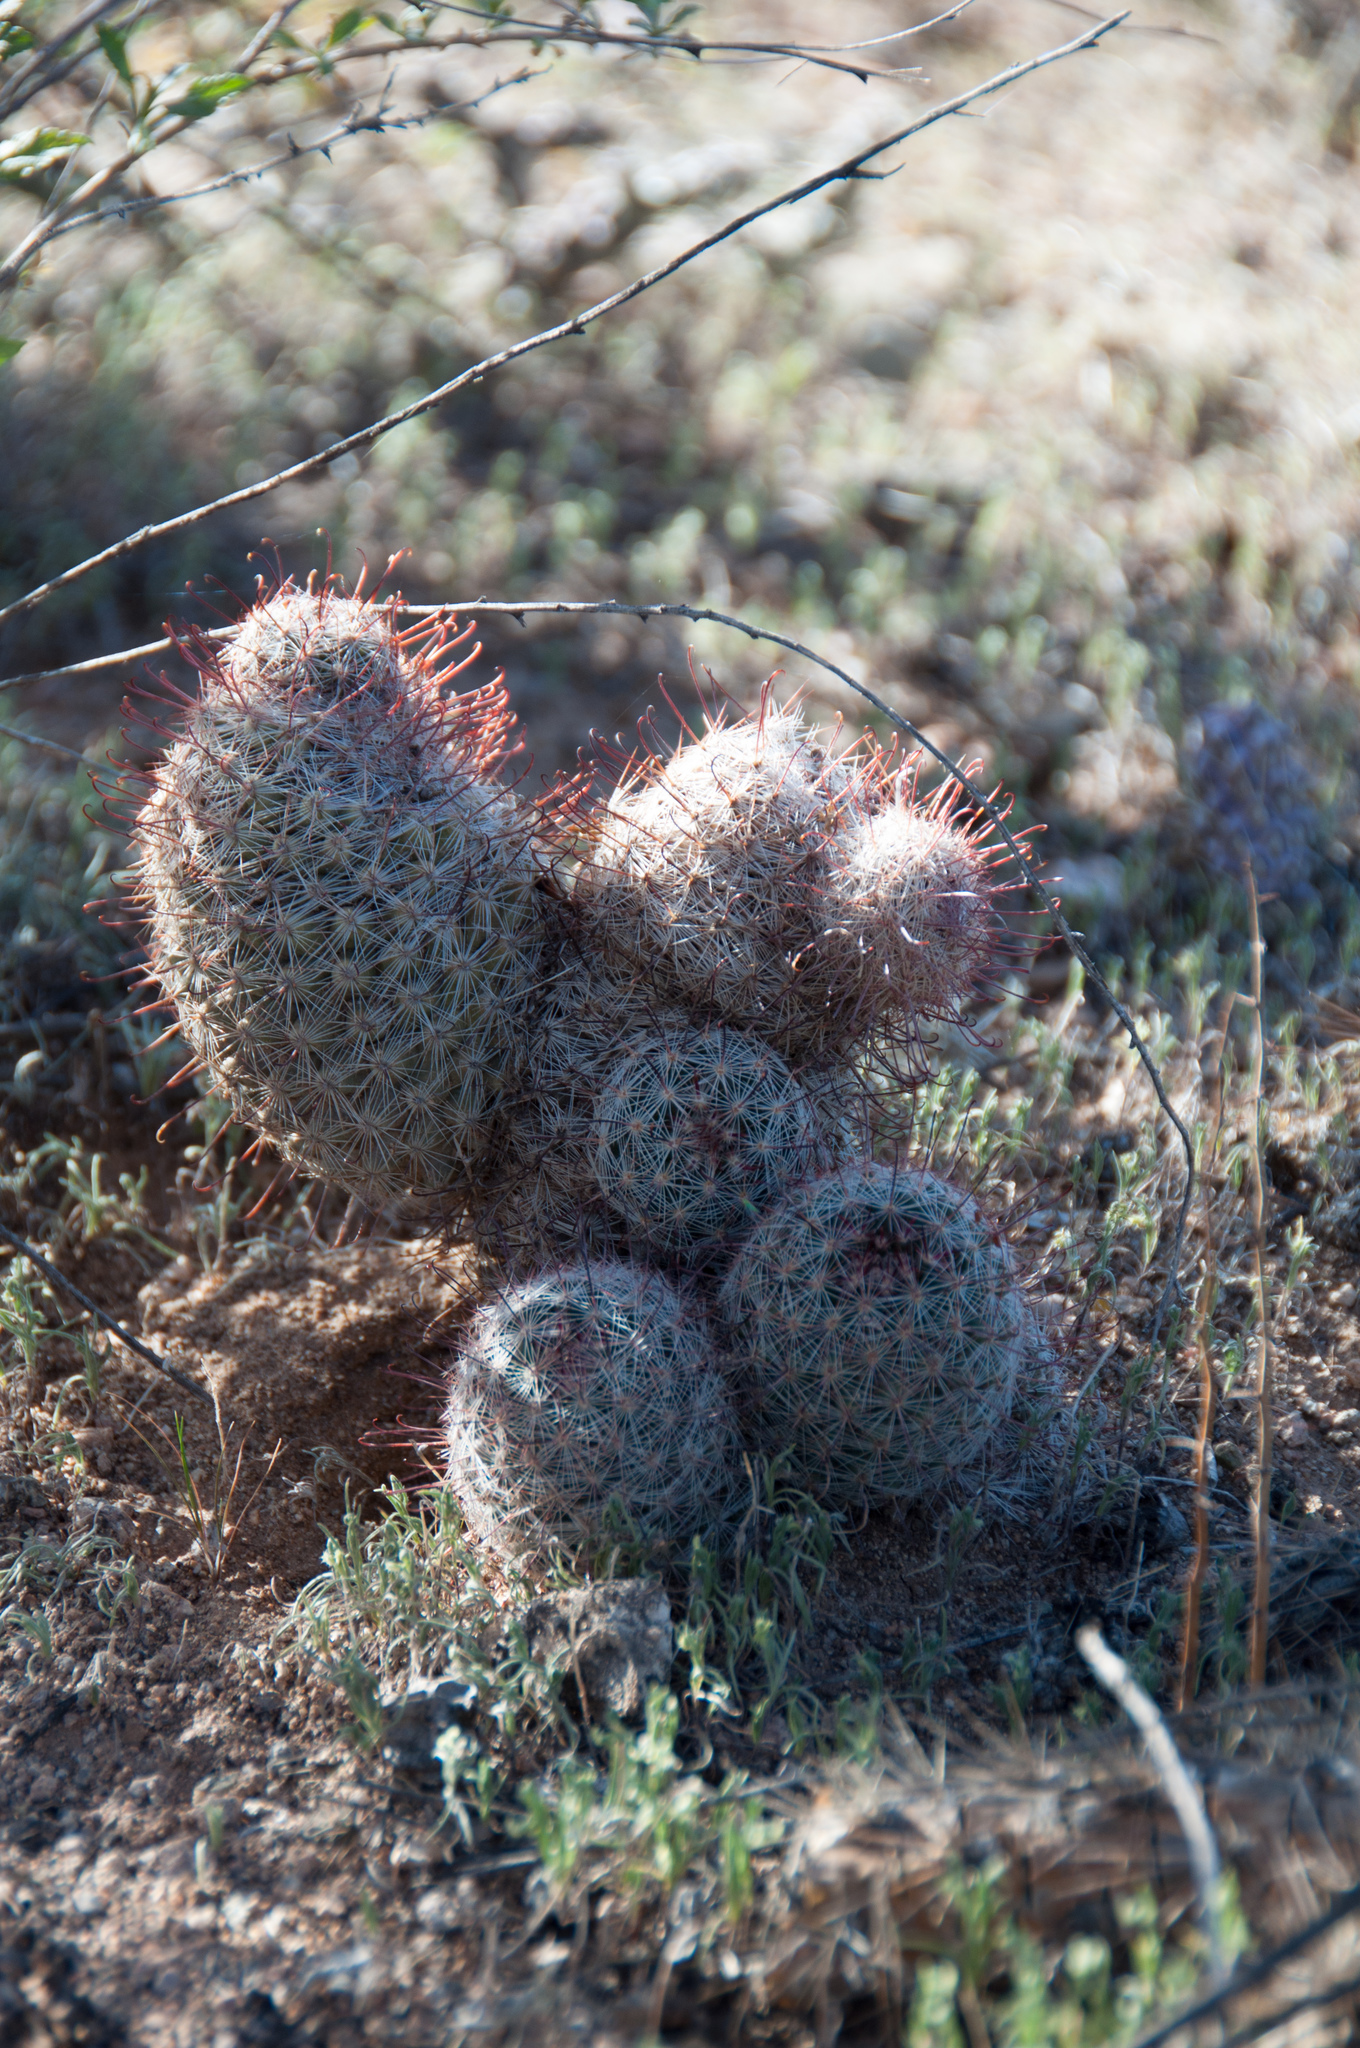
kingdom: Plantae
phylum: Tracheophyta
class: Magnoliopsida
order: Caryophyllales
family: Cactaceae
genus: Cochemiea
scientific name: Cochemiea grahamii
